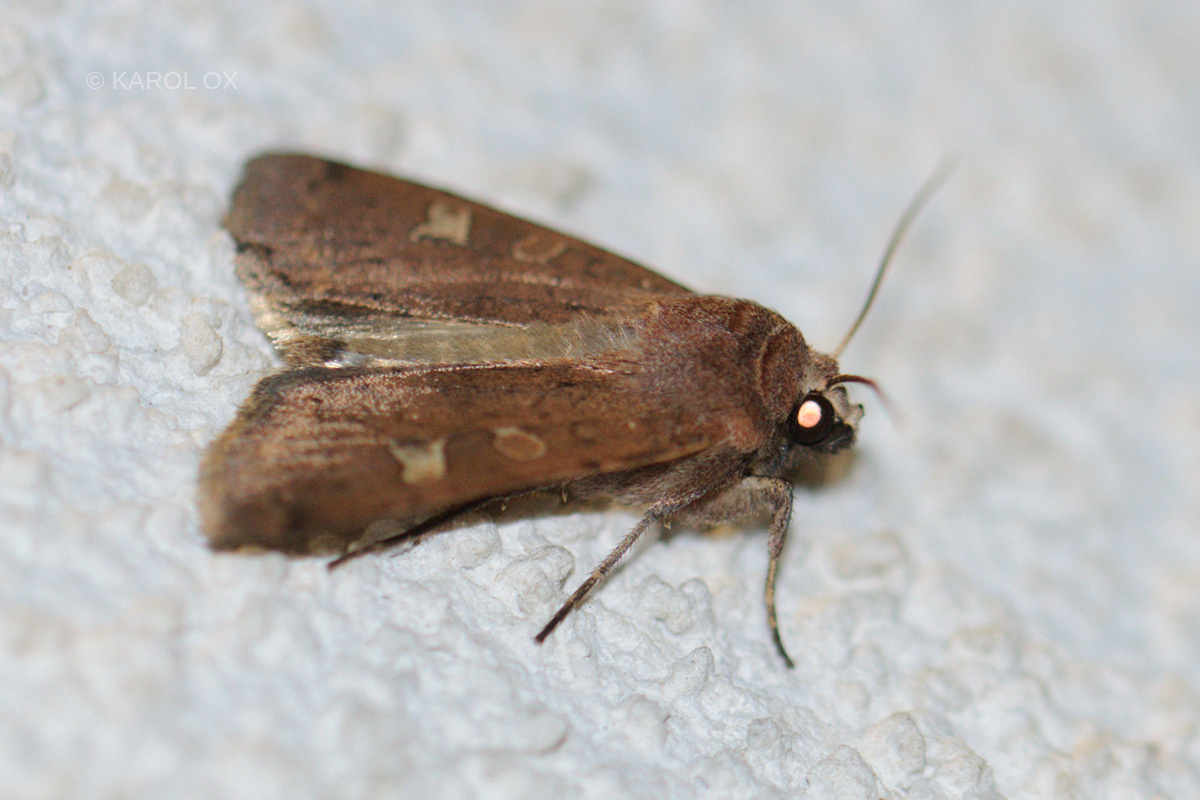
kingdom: Animalia
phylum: Arthropoda
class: Insecta
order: Lepidoptera
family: Noctuidae
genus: Xestia
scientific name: Xestia xanthographa
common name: Square-spot rustic
